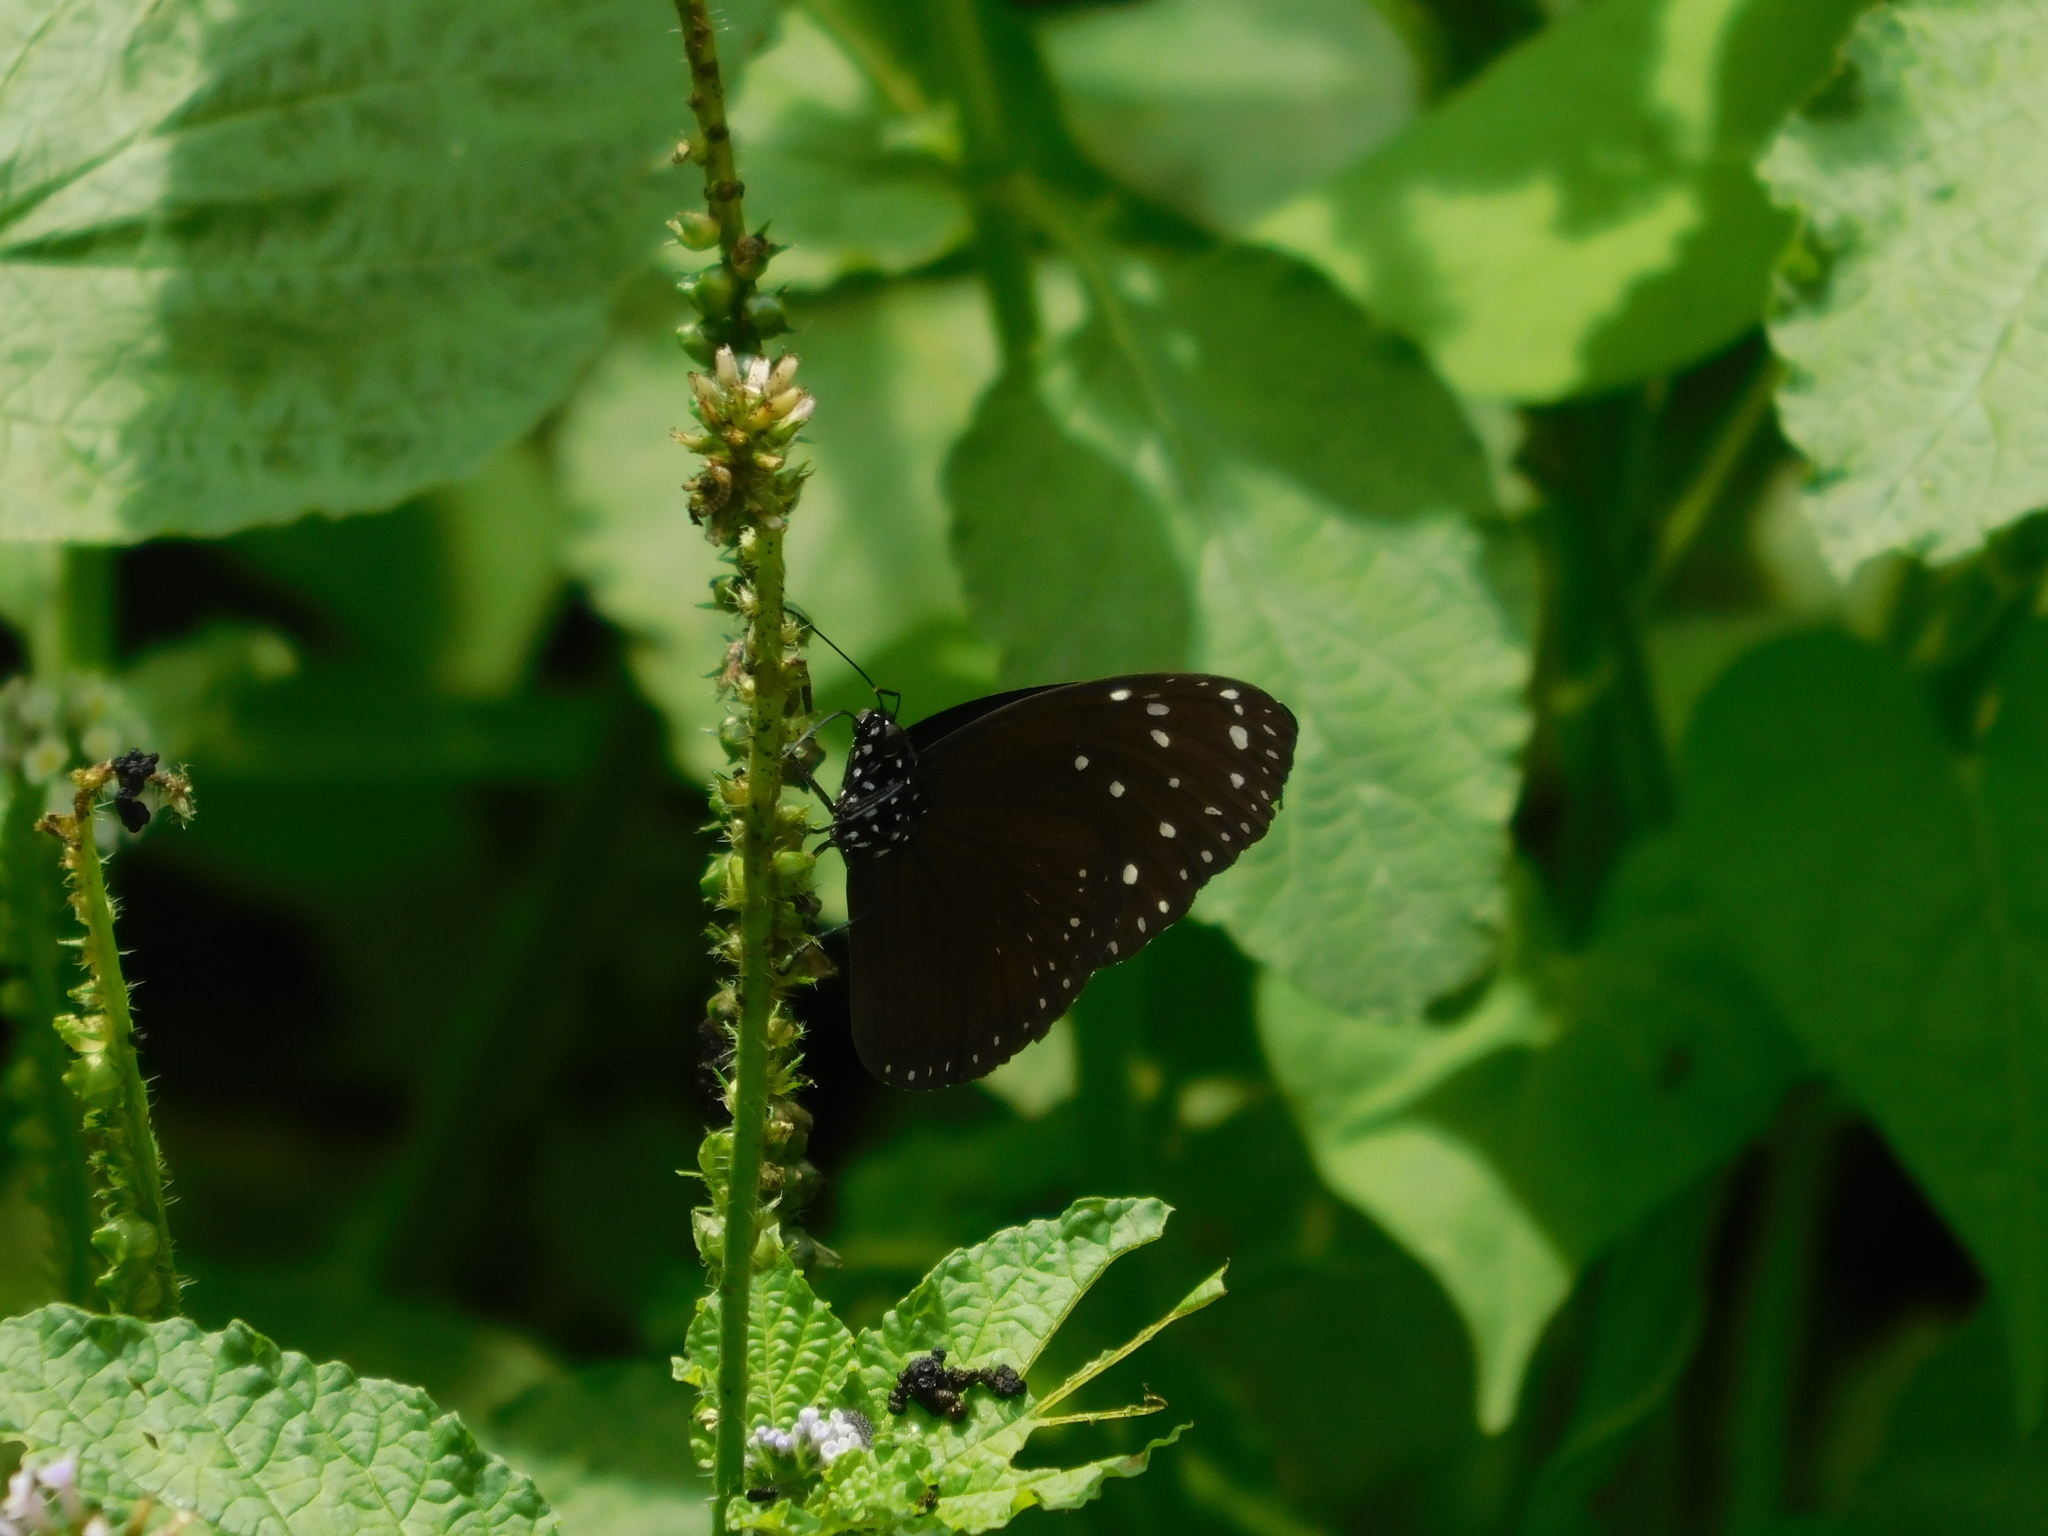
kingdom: Animalia
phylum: Arthropoda
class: Insecta
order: Lepidoptera
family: Nymphalidae
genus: Euploea
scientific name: Euploea mulciber
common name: Striped blue crow butterfly
